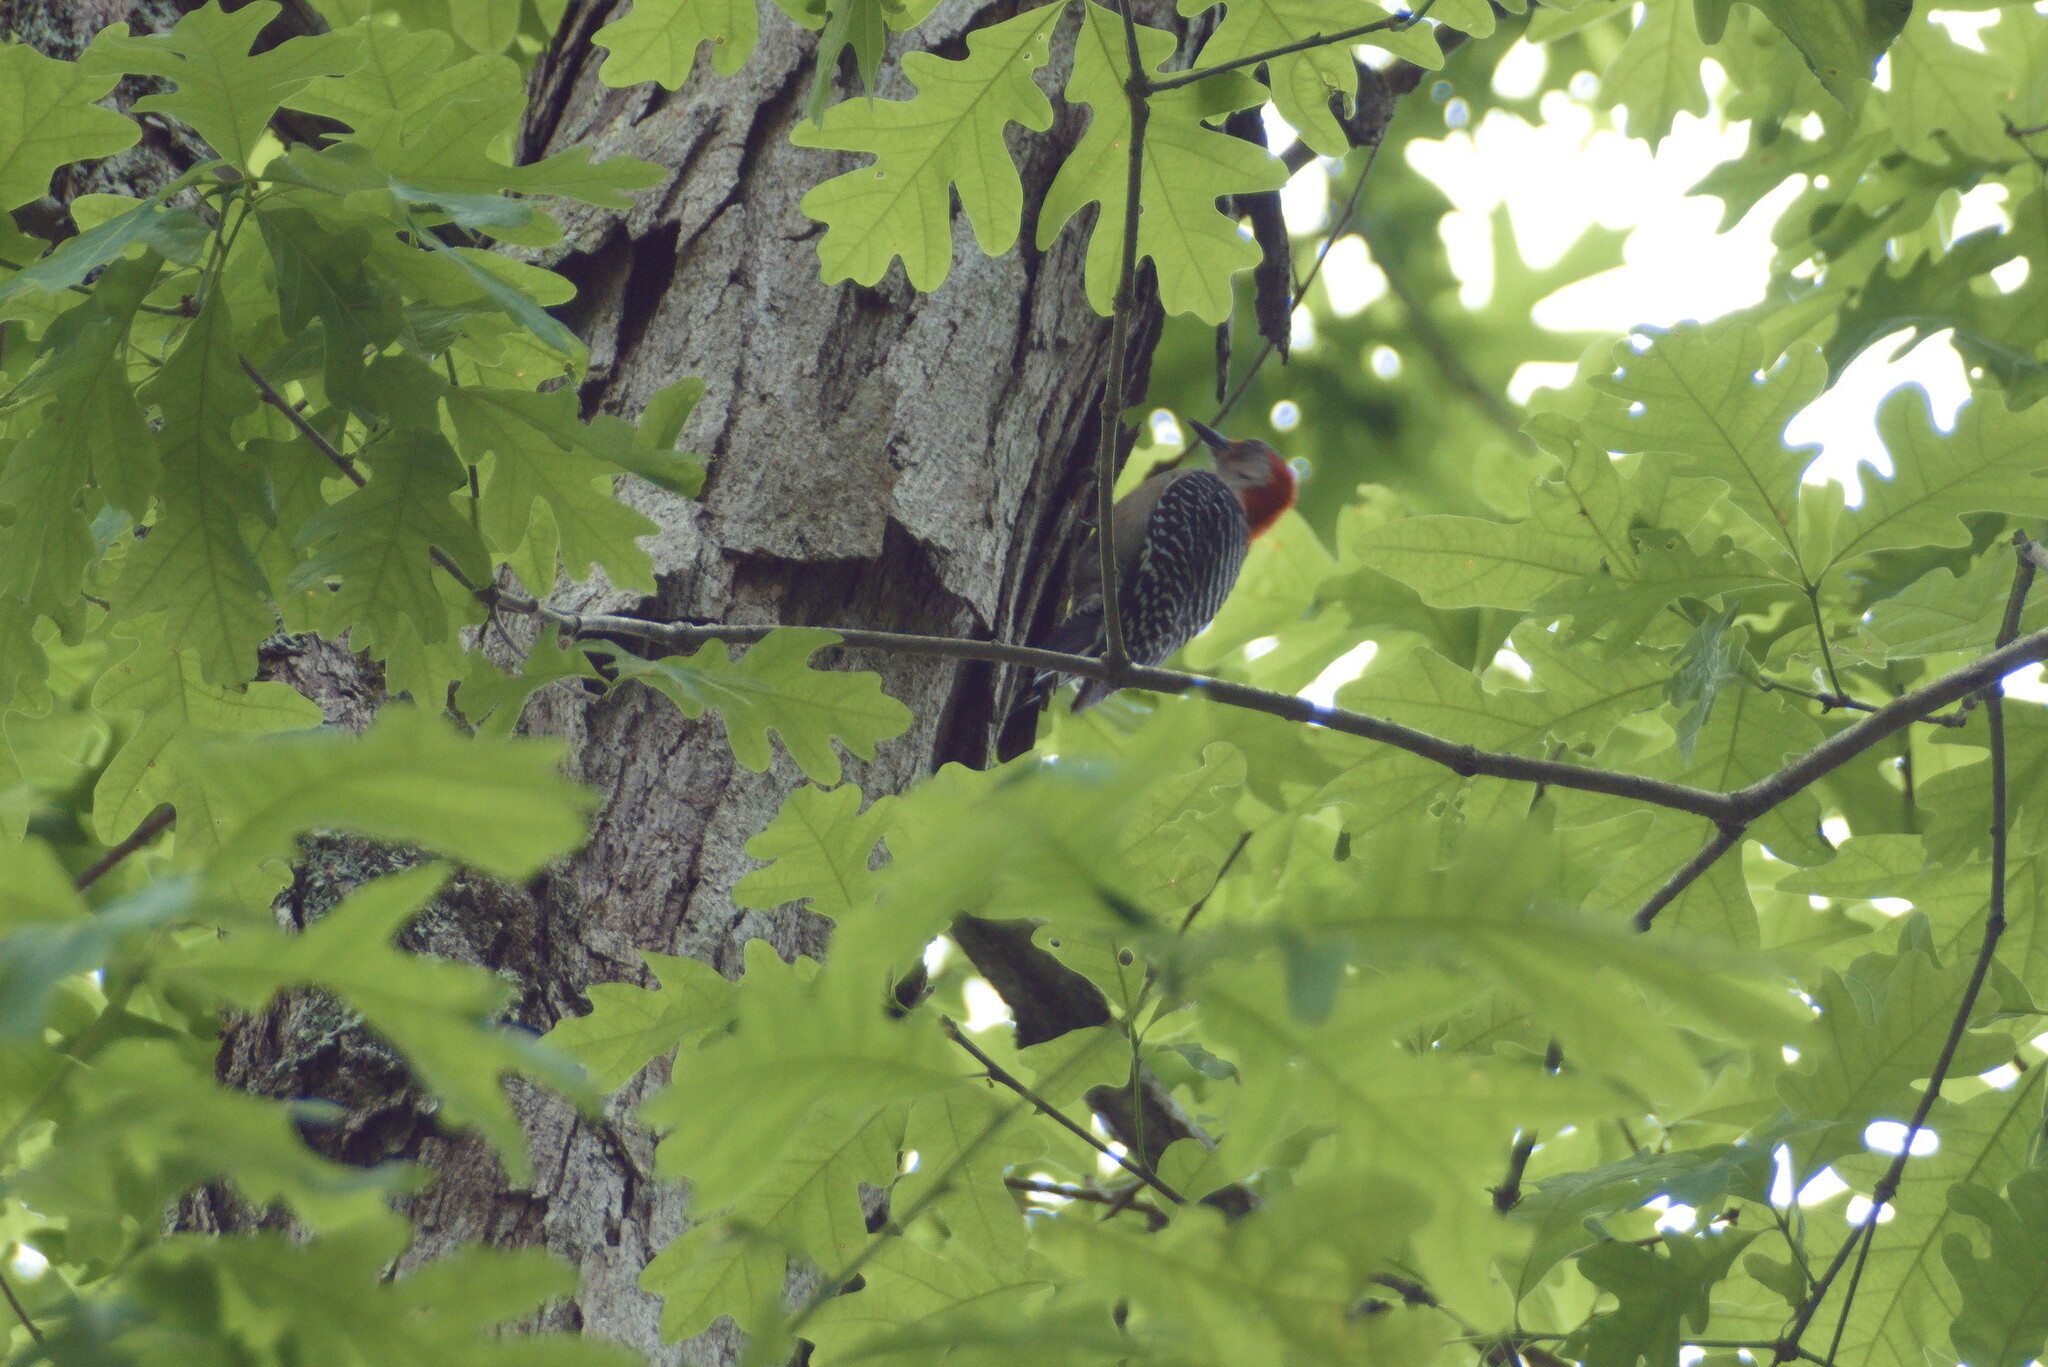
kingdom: Animalia
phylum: Chordata
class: Aves
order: Piciformes
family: Picidae
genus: Melanerpes
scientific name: Melanerpes carolinus
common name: Red-bellied woodpecker
